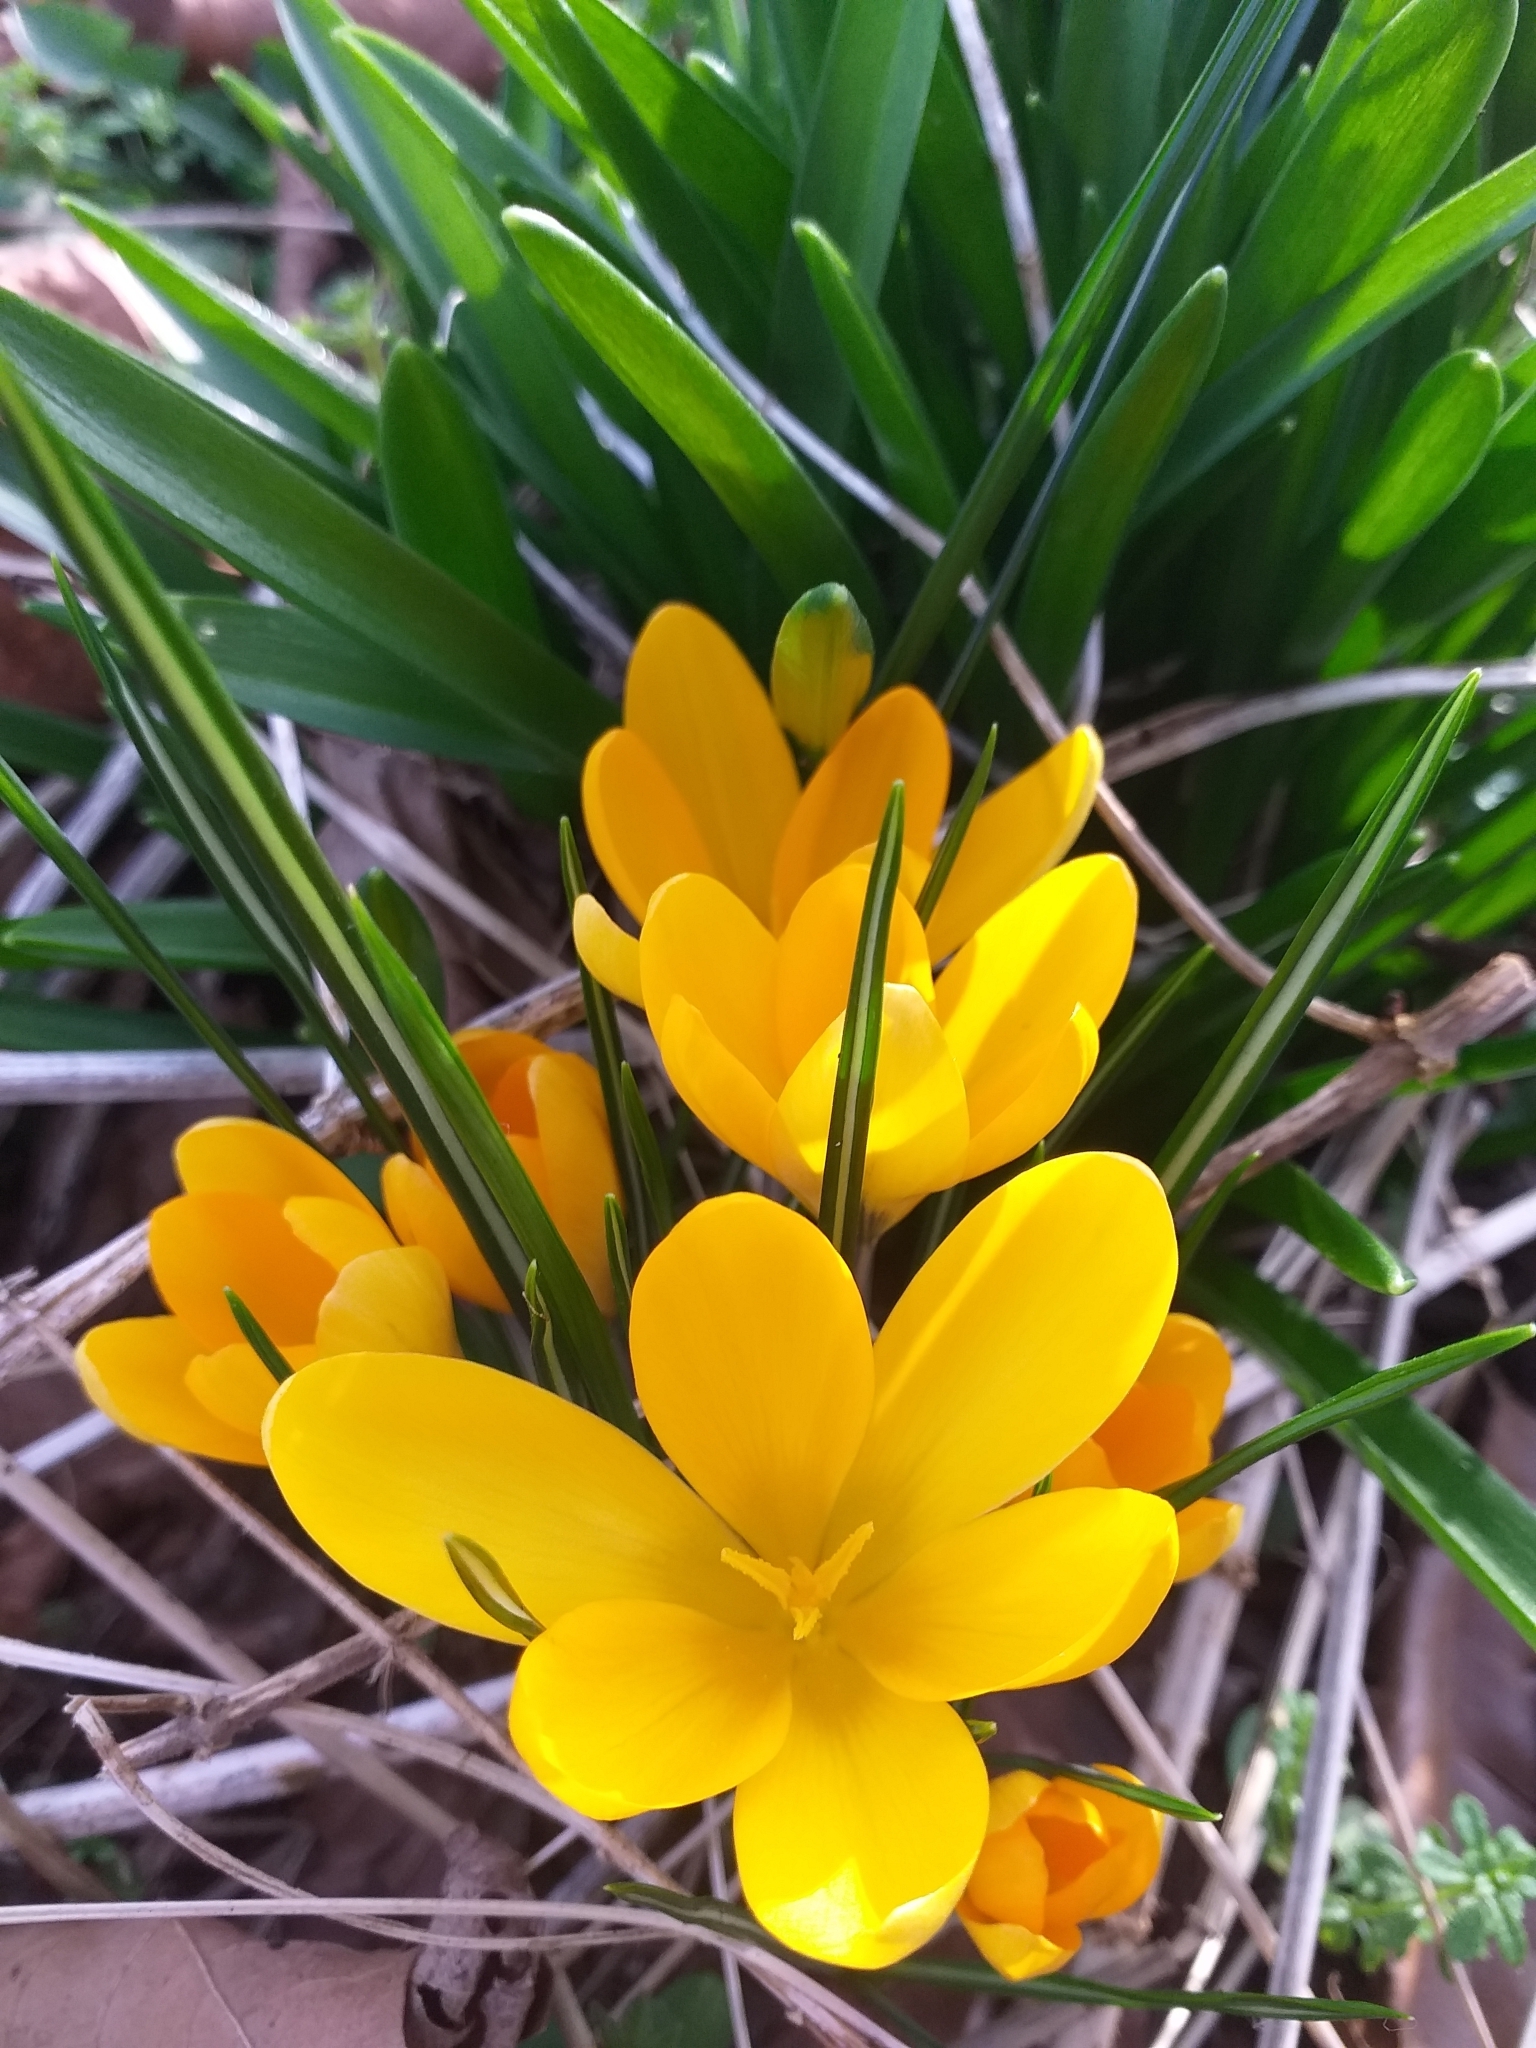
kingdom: Plantae
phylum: Tracheophyta
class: Liliopsida
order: Asparagales
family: Iridaceae
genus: Crocus
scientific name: Crocus luteus
